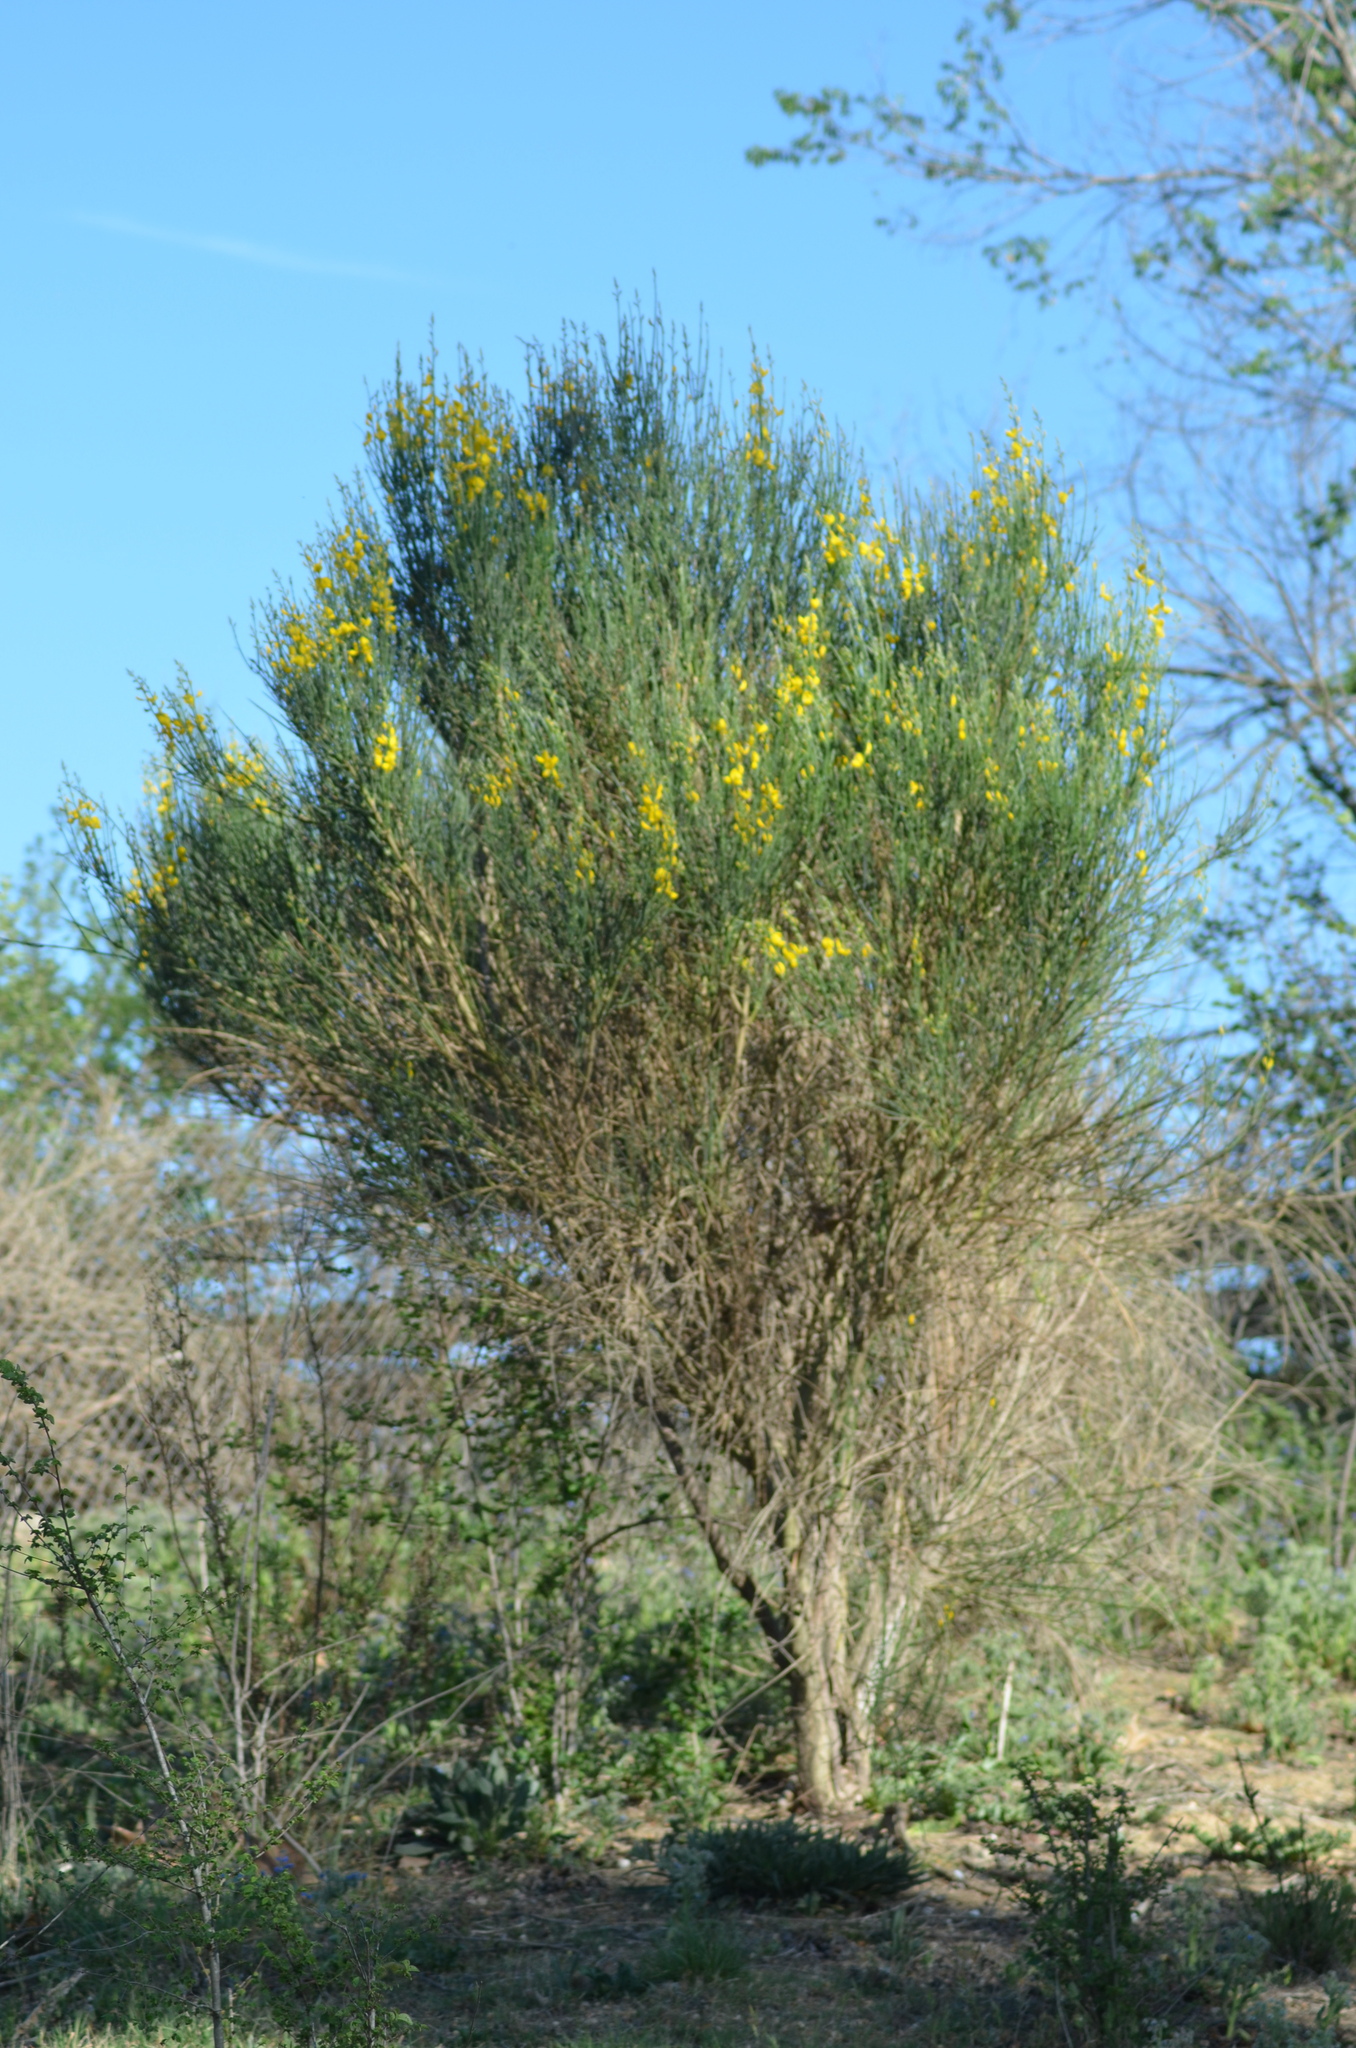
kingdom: Plantae
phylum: Tracheophyta
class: Magnoliopsida
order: Fabales
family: Fabaceae
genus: Spartium
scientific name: Spartium junceum
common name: Spanish broom
